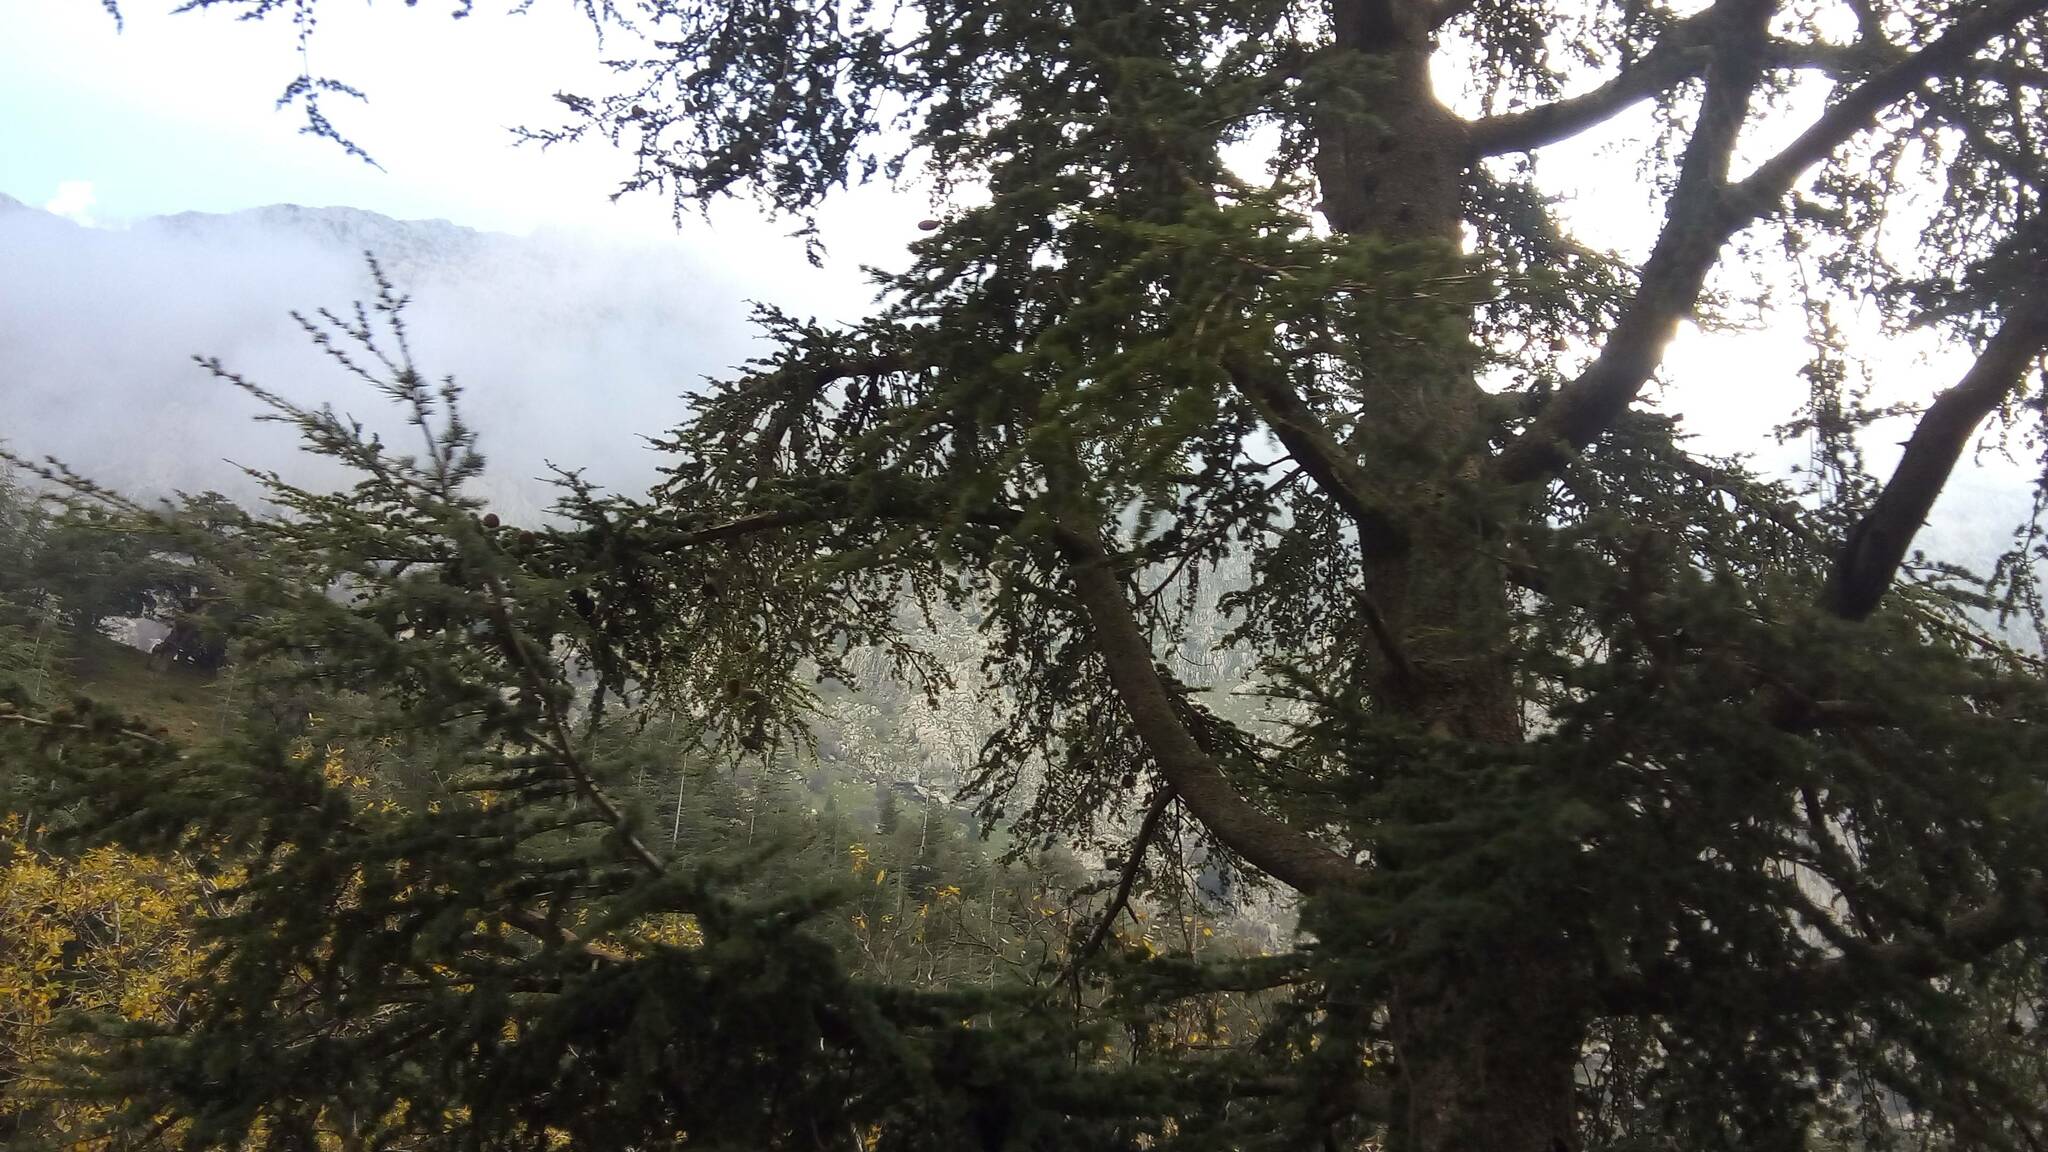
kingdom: Plantae
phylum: Tracheophyta
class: Pinopsida
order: Pinales
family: Pinaceae
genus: Cedrus
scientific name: Cedrus atlantica
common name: Atlas cedar
